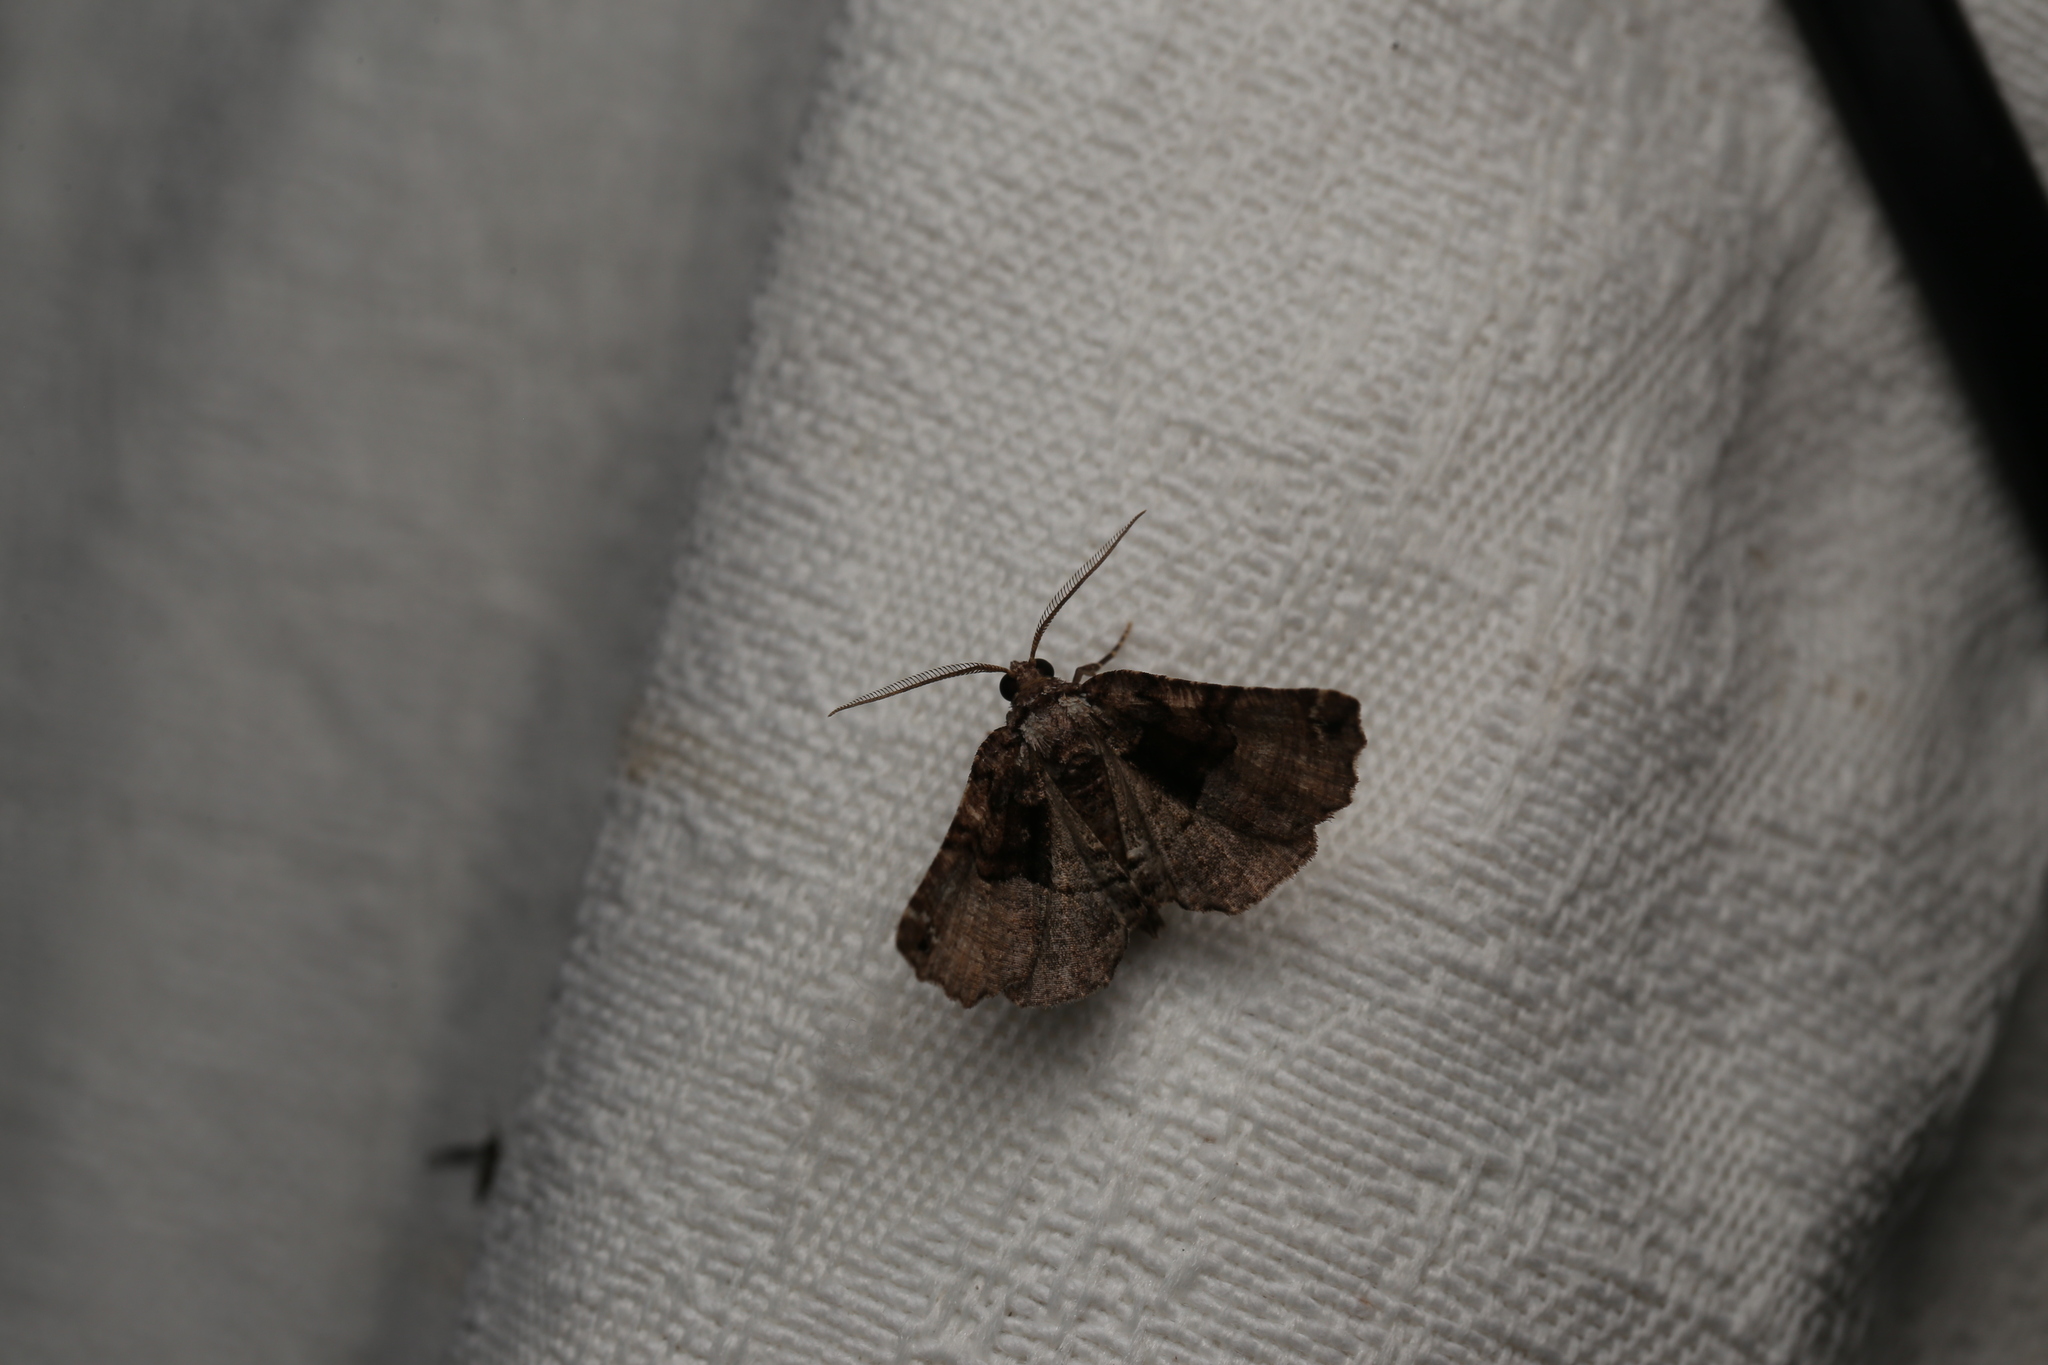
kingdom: Animalia
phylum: Arthropoda
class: Insecta
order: Lepidoptera
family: Geometridae
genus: Campaea
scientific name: Campaea Metrocampa celaenephes
